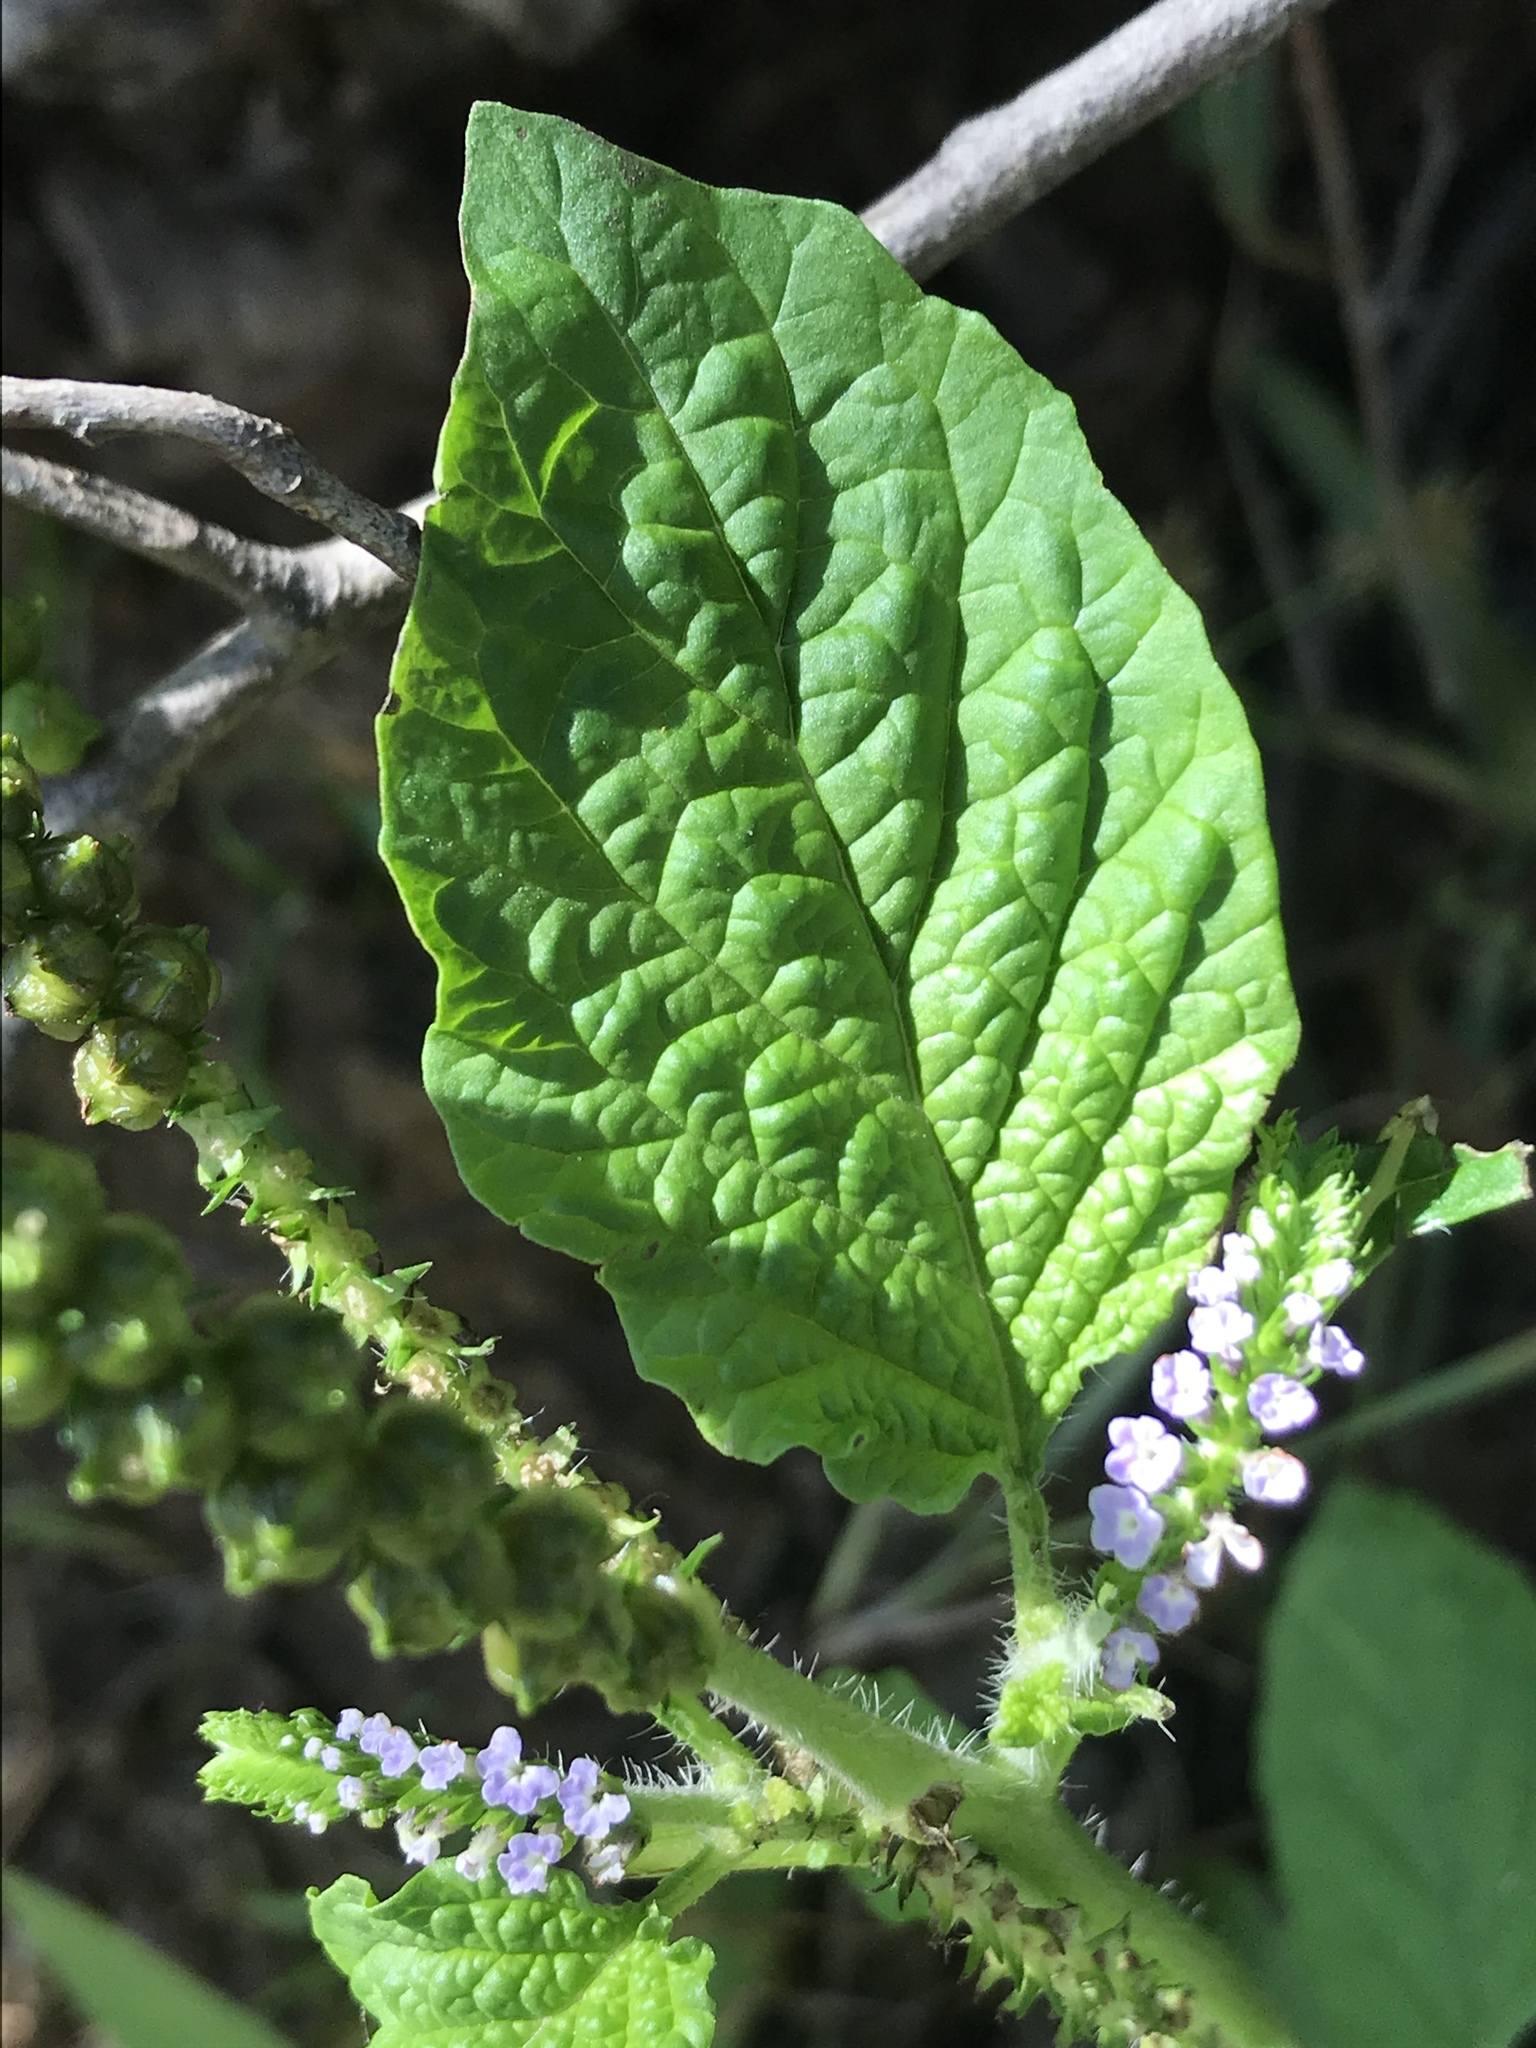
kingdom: Plantae
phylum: Tracheophyta
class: Magnoliopsida
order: Boraginales
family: Heliotropiaceae
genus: Heliotropium
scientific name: Heliotropium indicum
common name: Indian heliotrope
